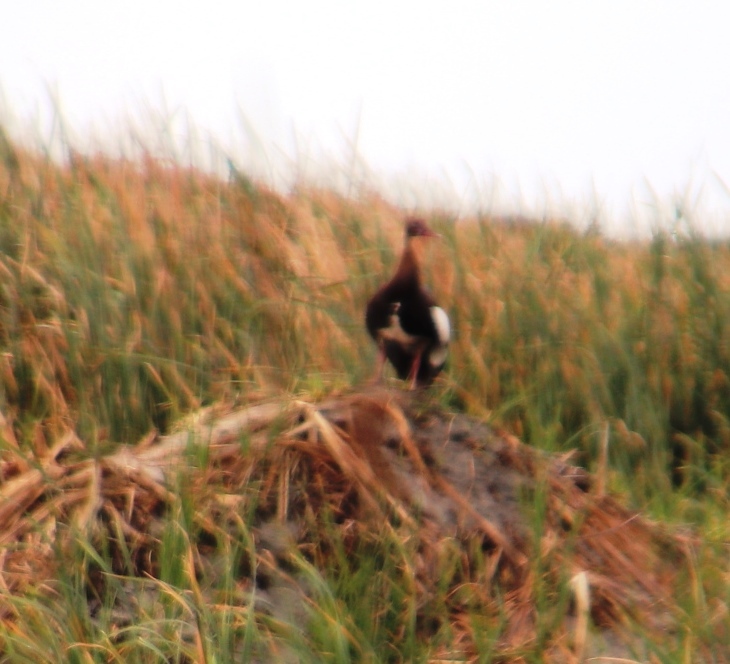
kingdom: Animalia
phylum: Chordata
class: Aves
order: Anseriformes
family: Anatidae
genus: Plectropterus
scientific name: Plectropterus gambensis
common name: Spur-winged goose
